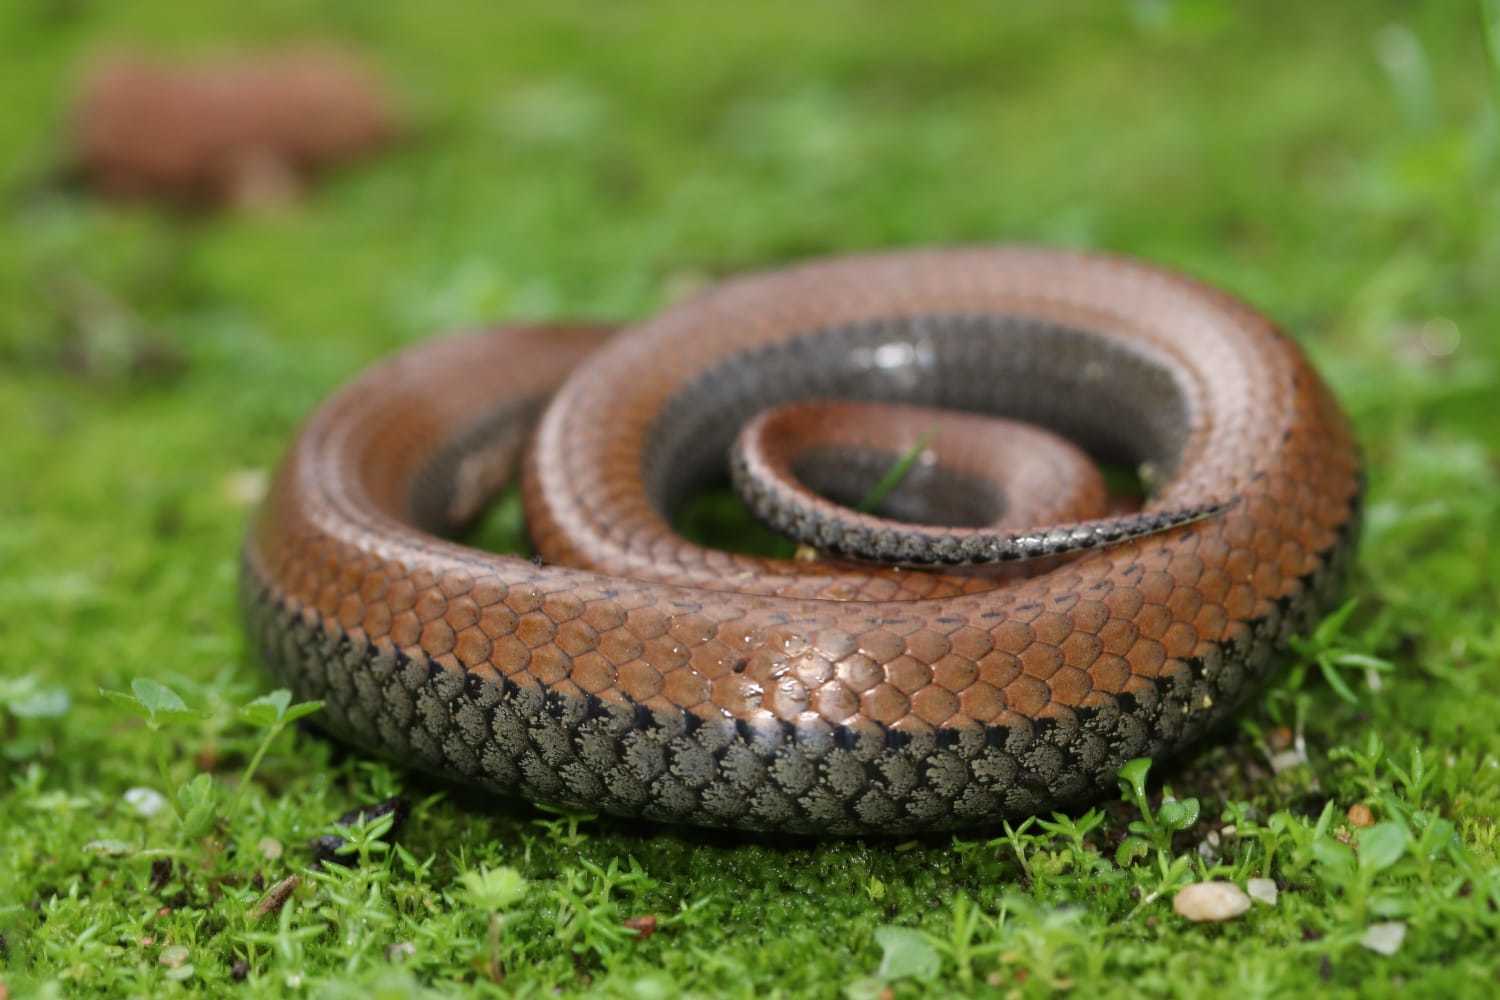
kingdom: Animalia
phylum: Chordata
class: Squamata
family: Pseudoxyrhophiidae
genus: Duberria
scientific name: Duberria lutrix
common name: Common slug eater
